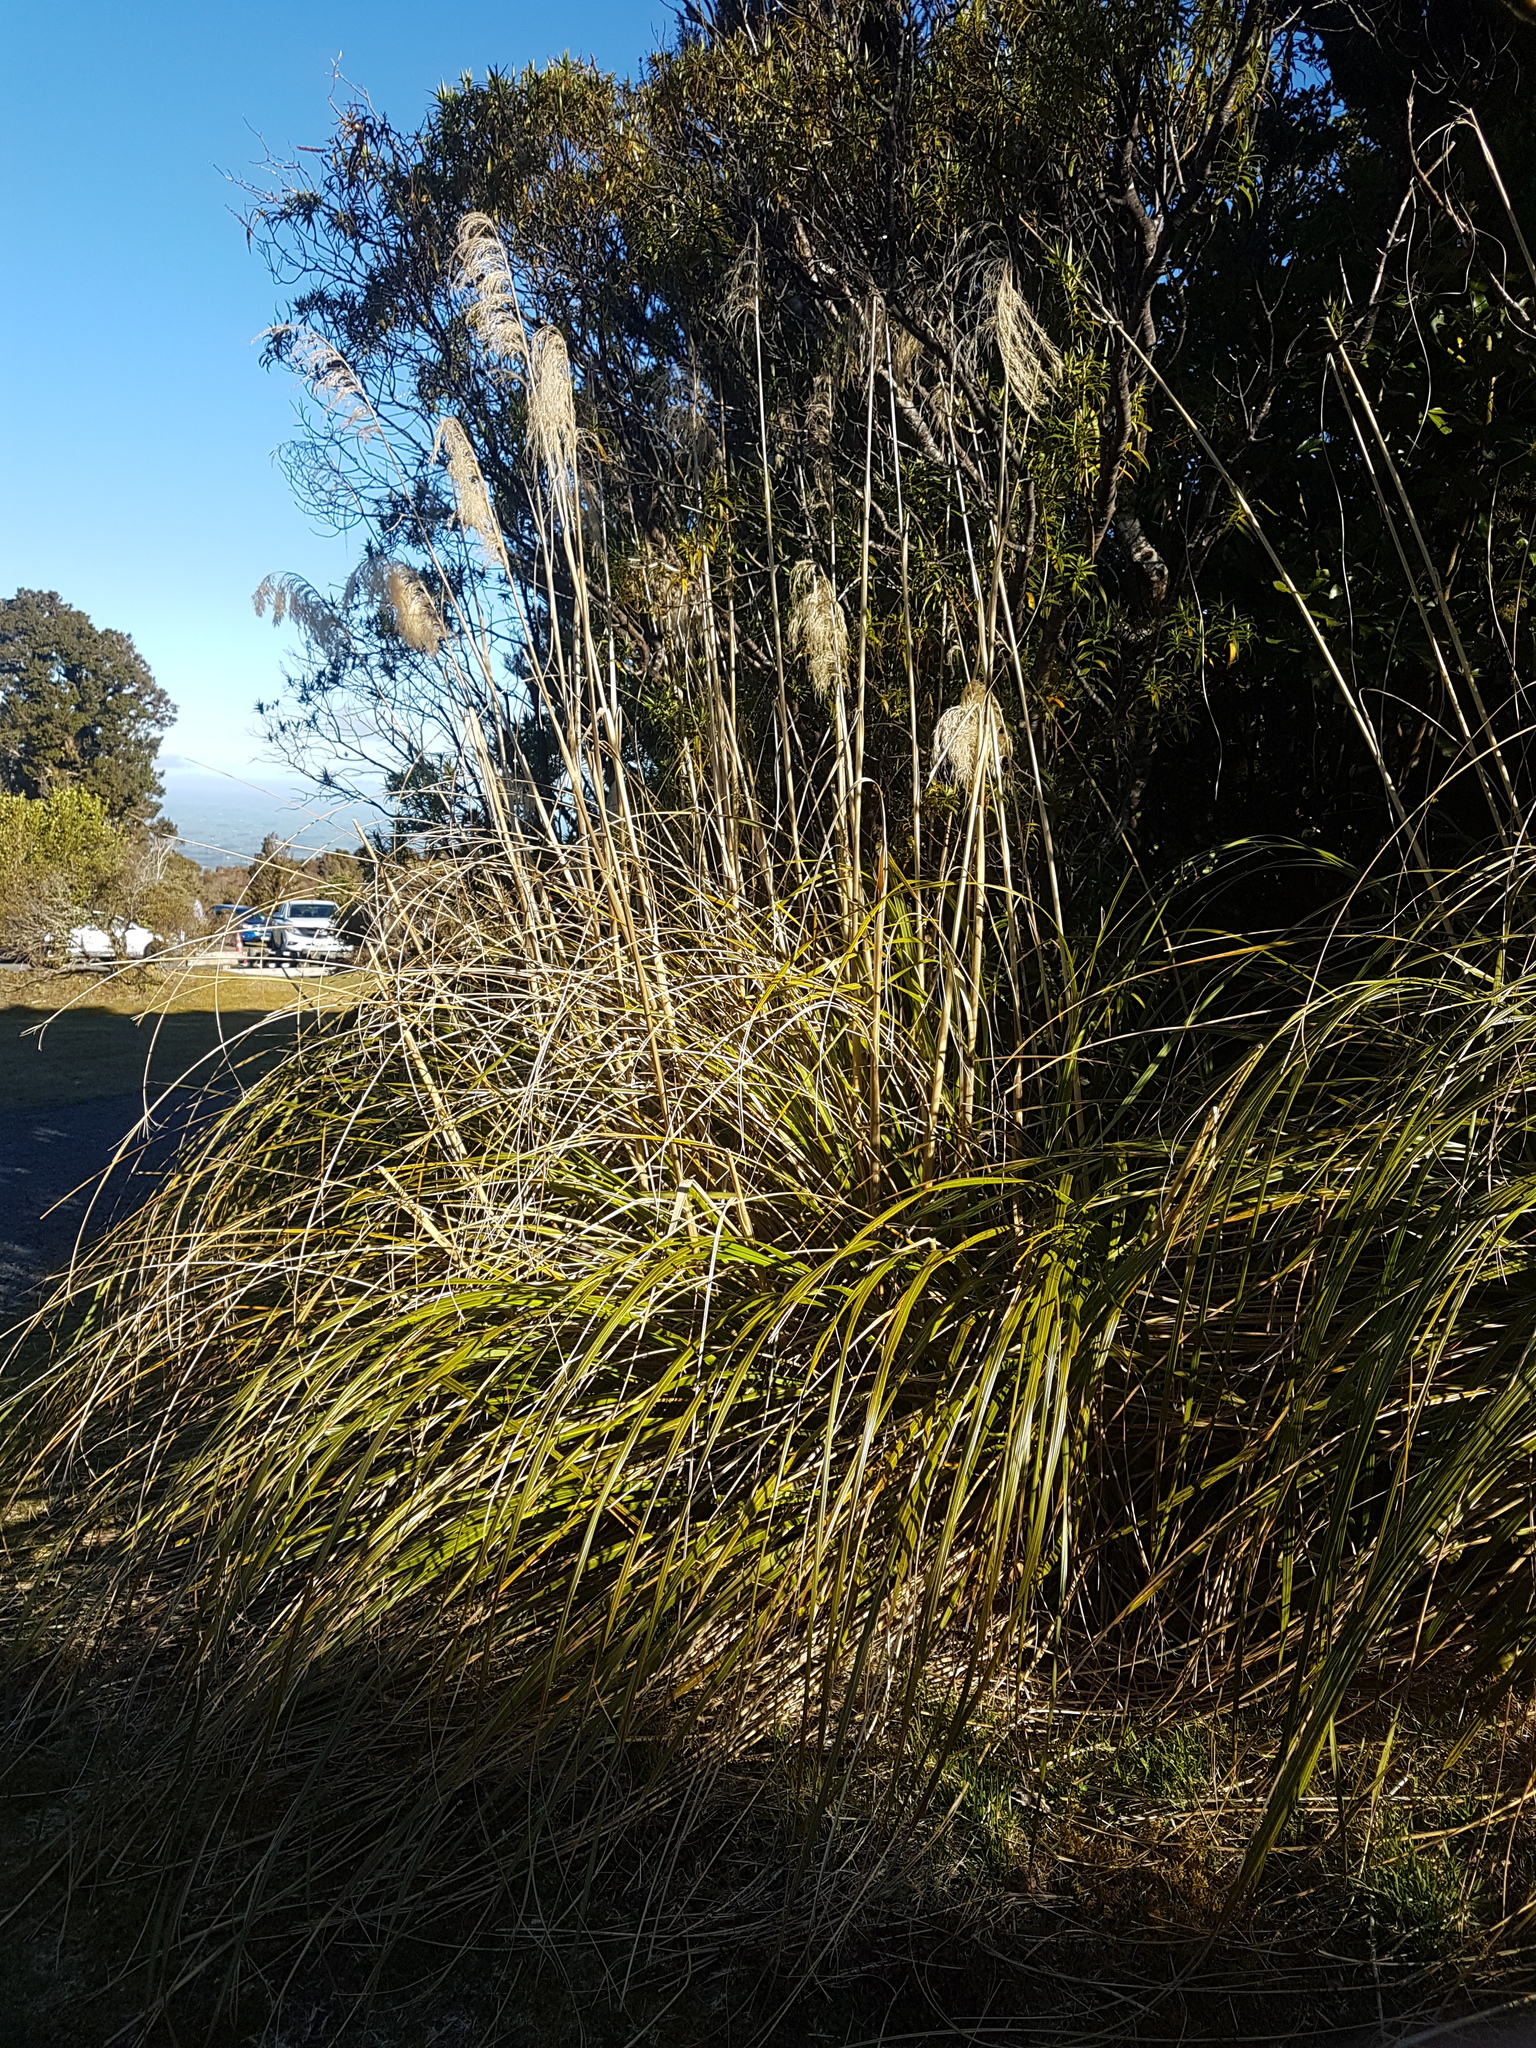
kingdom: Plantae
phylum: Tracheophyta
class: Liliopsida
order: Poales
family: Poaceae
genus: Austroderia
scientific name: Austroderia fulvida
